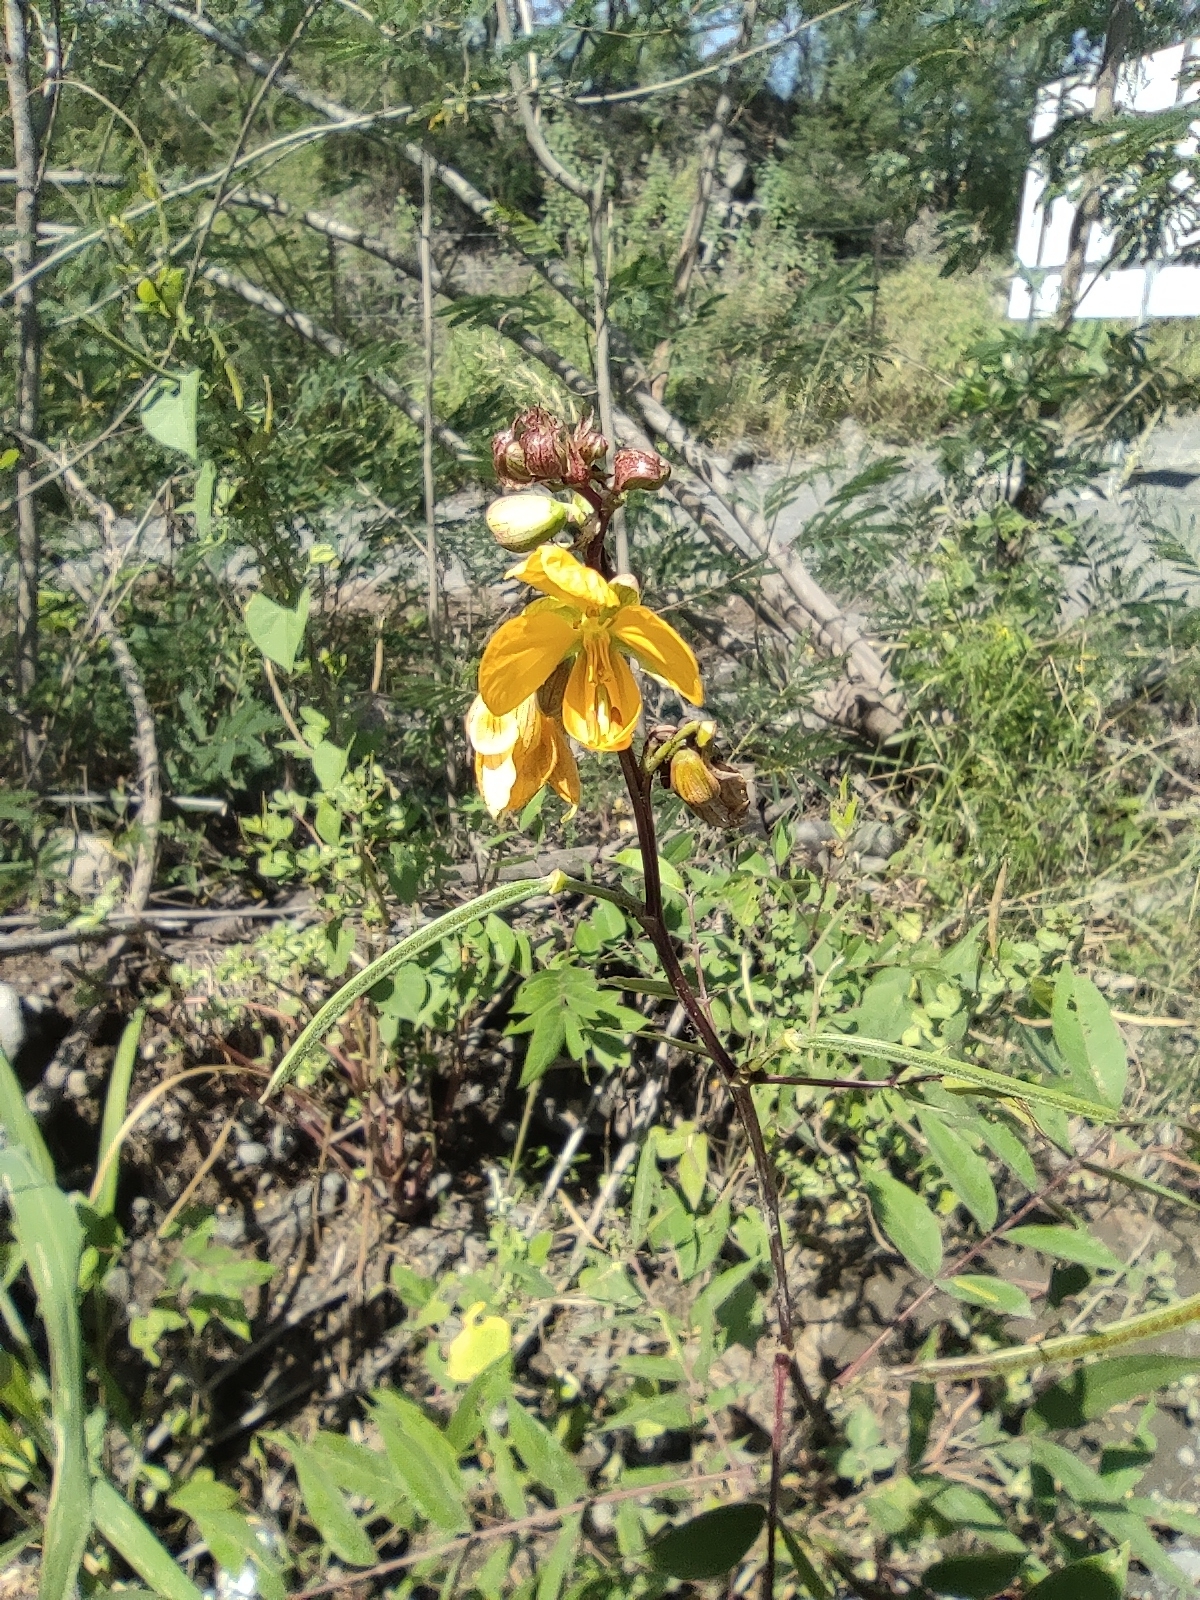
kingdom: Plantae
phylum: Tracheophyta
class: Magnoliopsida
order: Fabales
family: Fabaceae
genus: Senna
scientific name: Senna occidentalis
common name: Septicweed
